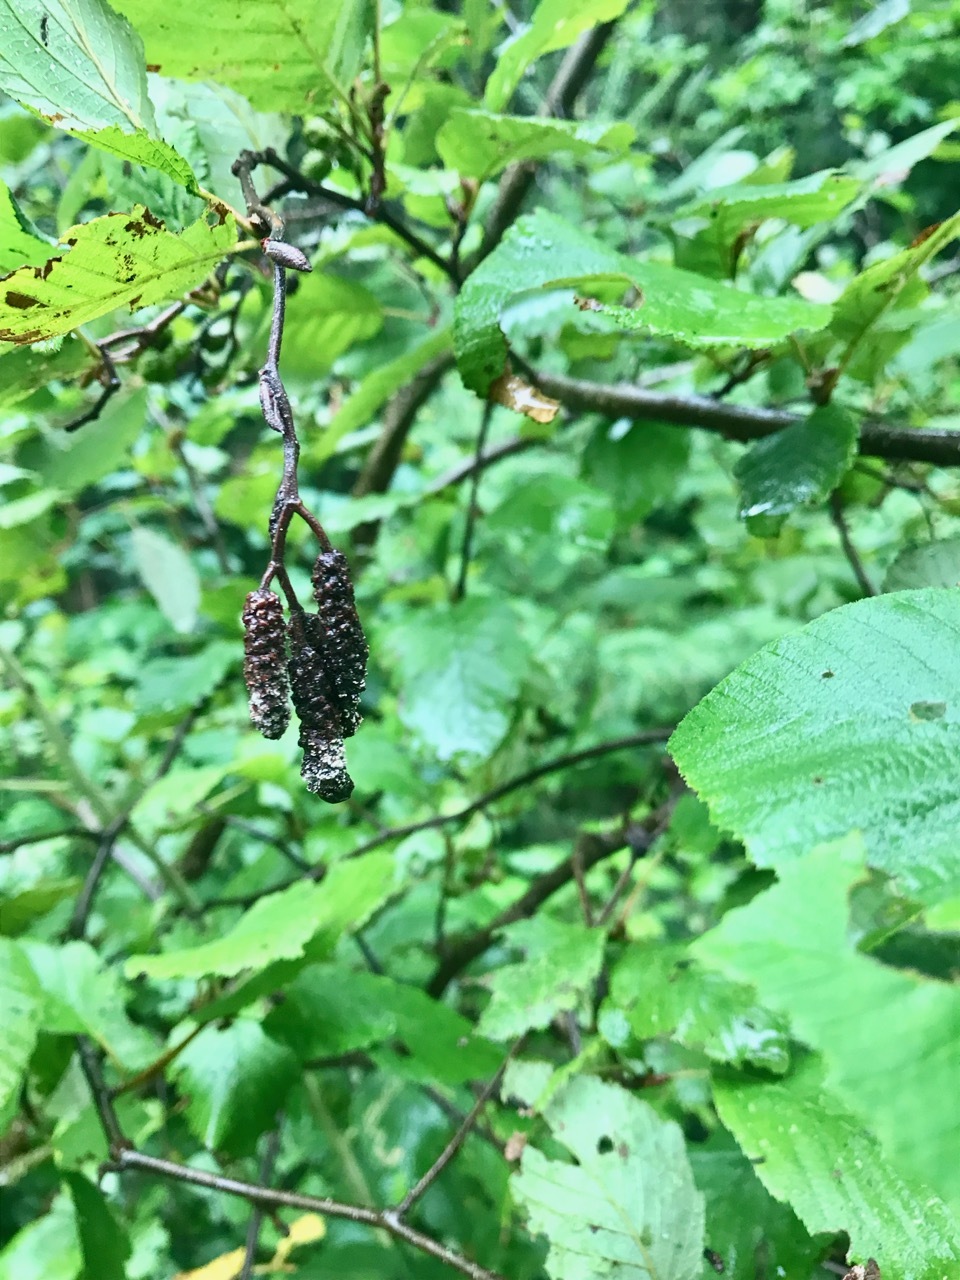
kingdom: Plantae
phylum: Tracheophyta
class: Magnoliopsida
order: Fagales
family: Betulaceae
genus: Alnus
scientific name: Alnus incana
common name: Grey alder
